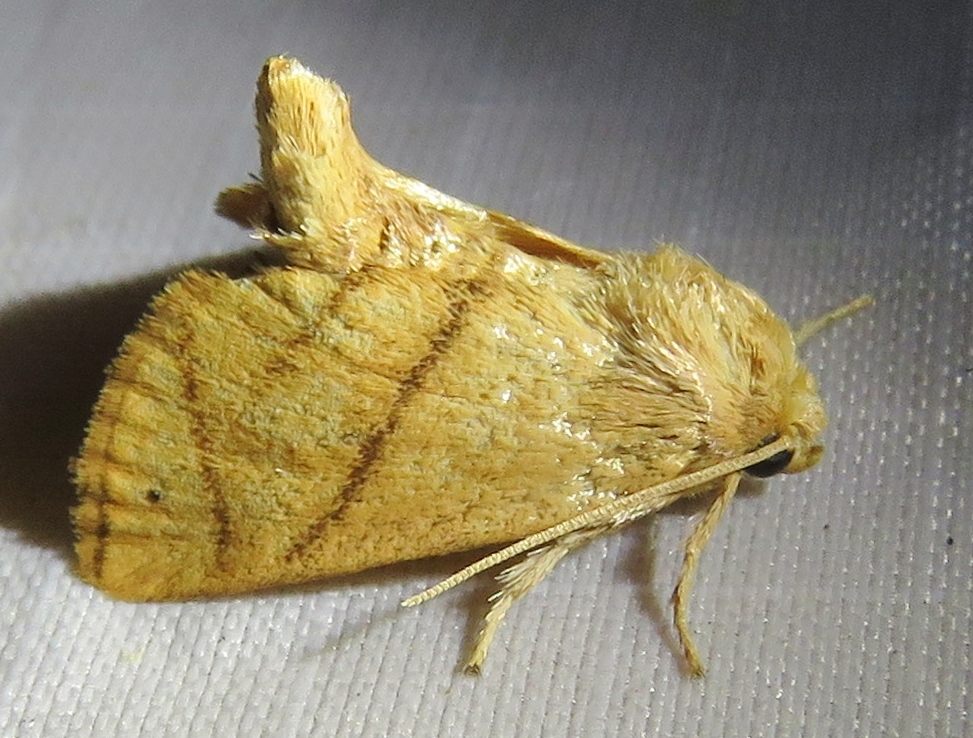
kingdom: Animalia
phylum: Arthropoda
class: Insecta
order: Lepidoptera
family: Limacodidae
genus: Apoda
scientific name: Apoda y-inversa
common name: Yellow-collared slug moth
